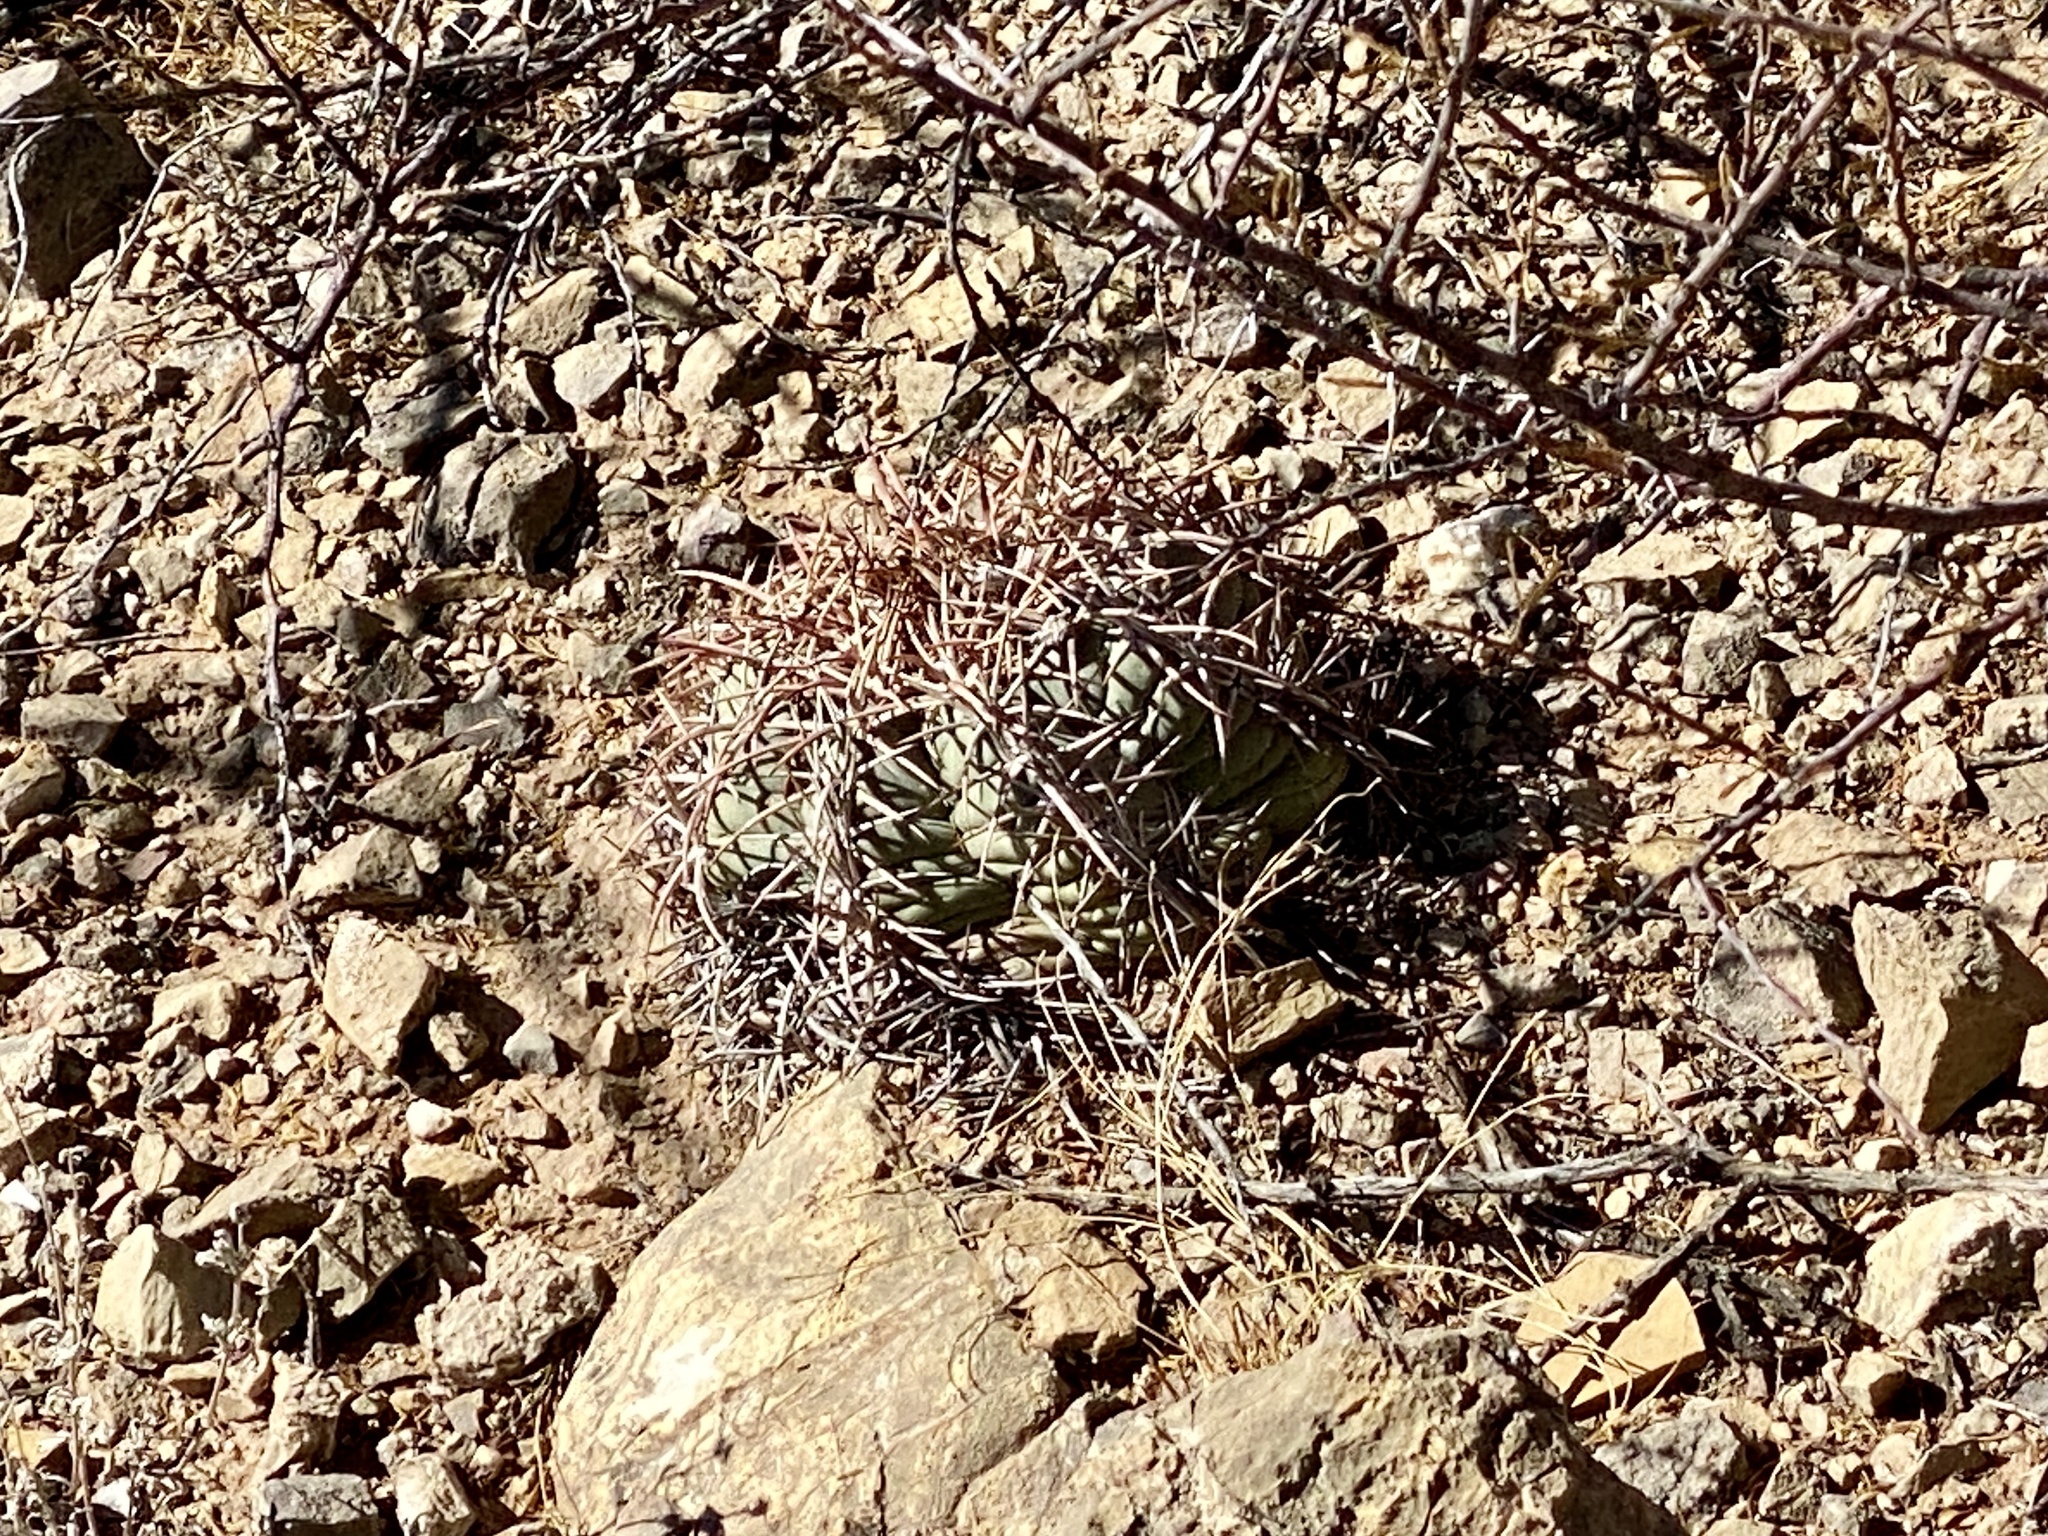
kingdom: Plantae
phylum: Tracheophyta
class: Magnoliopsida
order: Caryophyllales
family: Cactaceae
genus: Echinocactus
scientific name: Echinocactus horizonthalonius
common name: Devilshead
